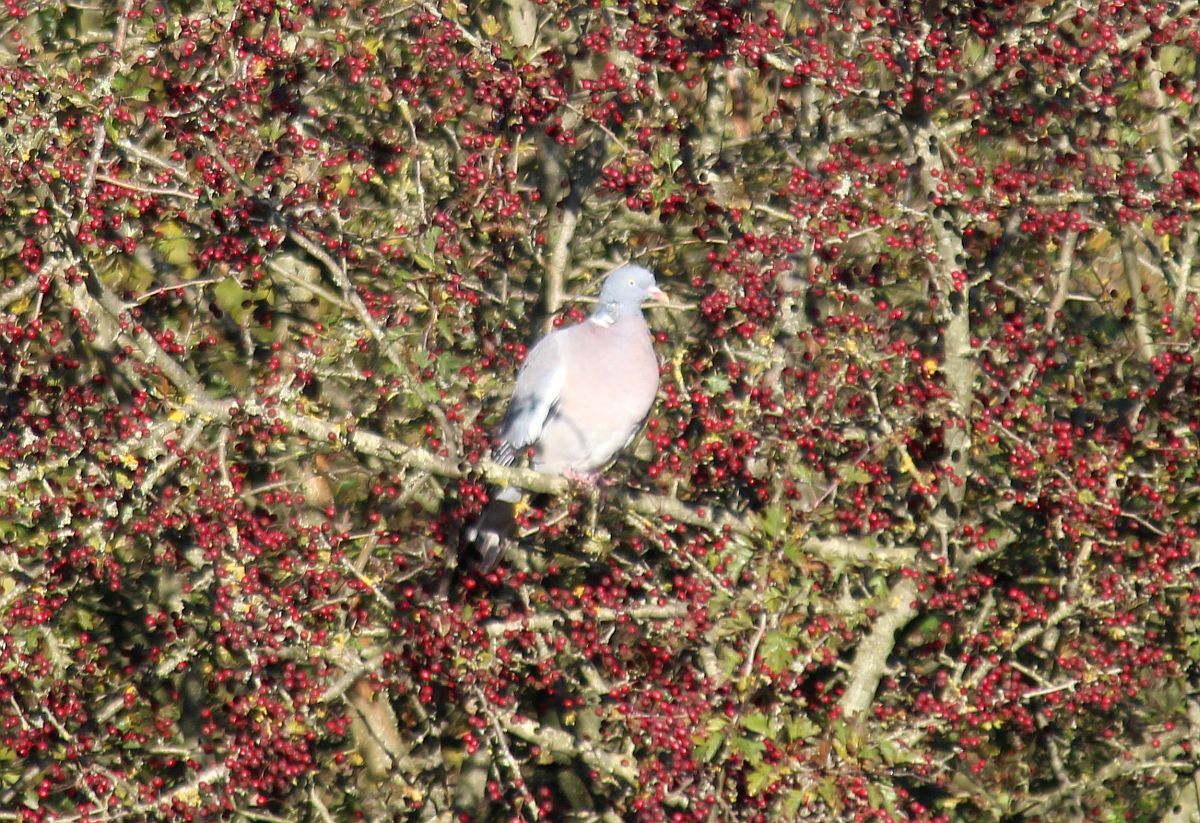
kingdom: Animalia
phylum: Chordata
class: Aves
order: Columbiformes
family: Columbidae
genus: Columba
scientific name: Columba palumbus
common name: Common wood pigeon
